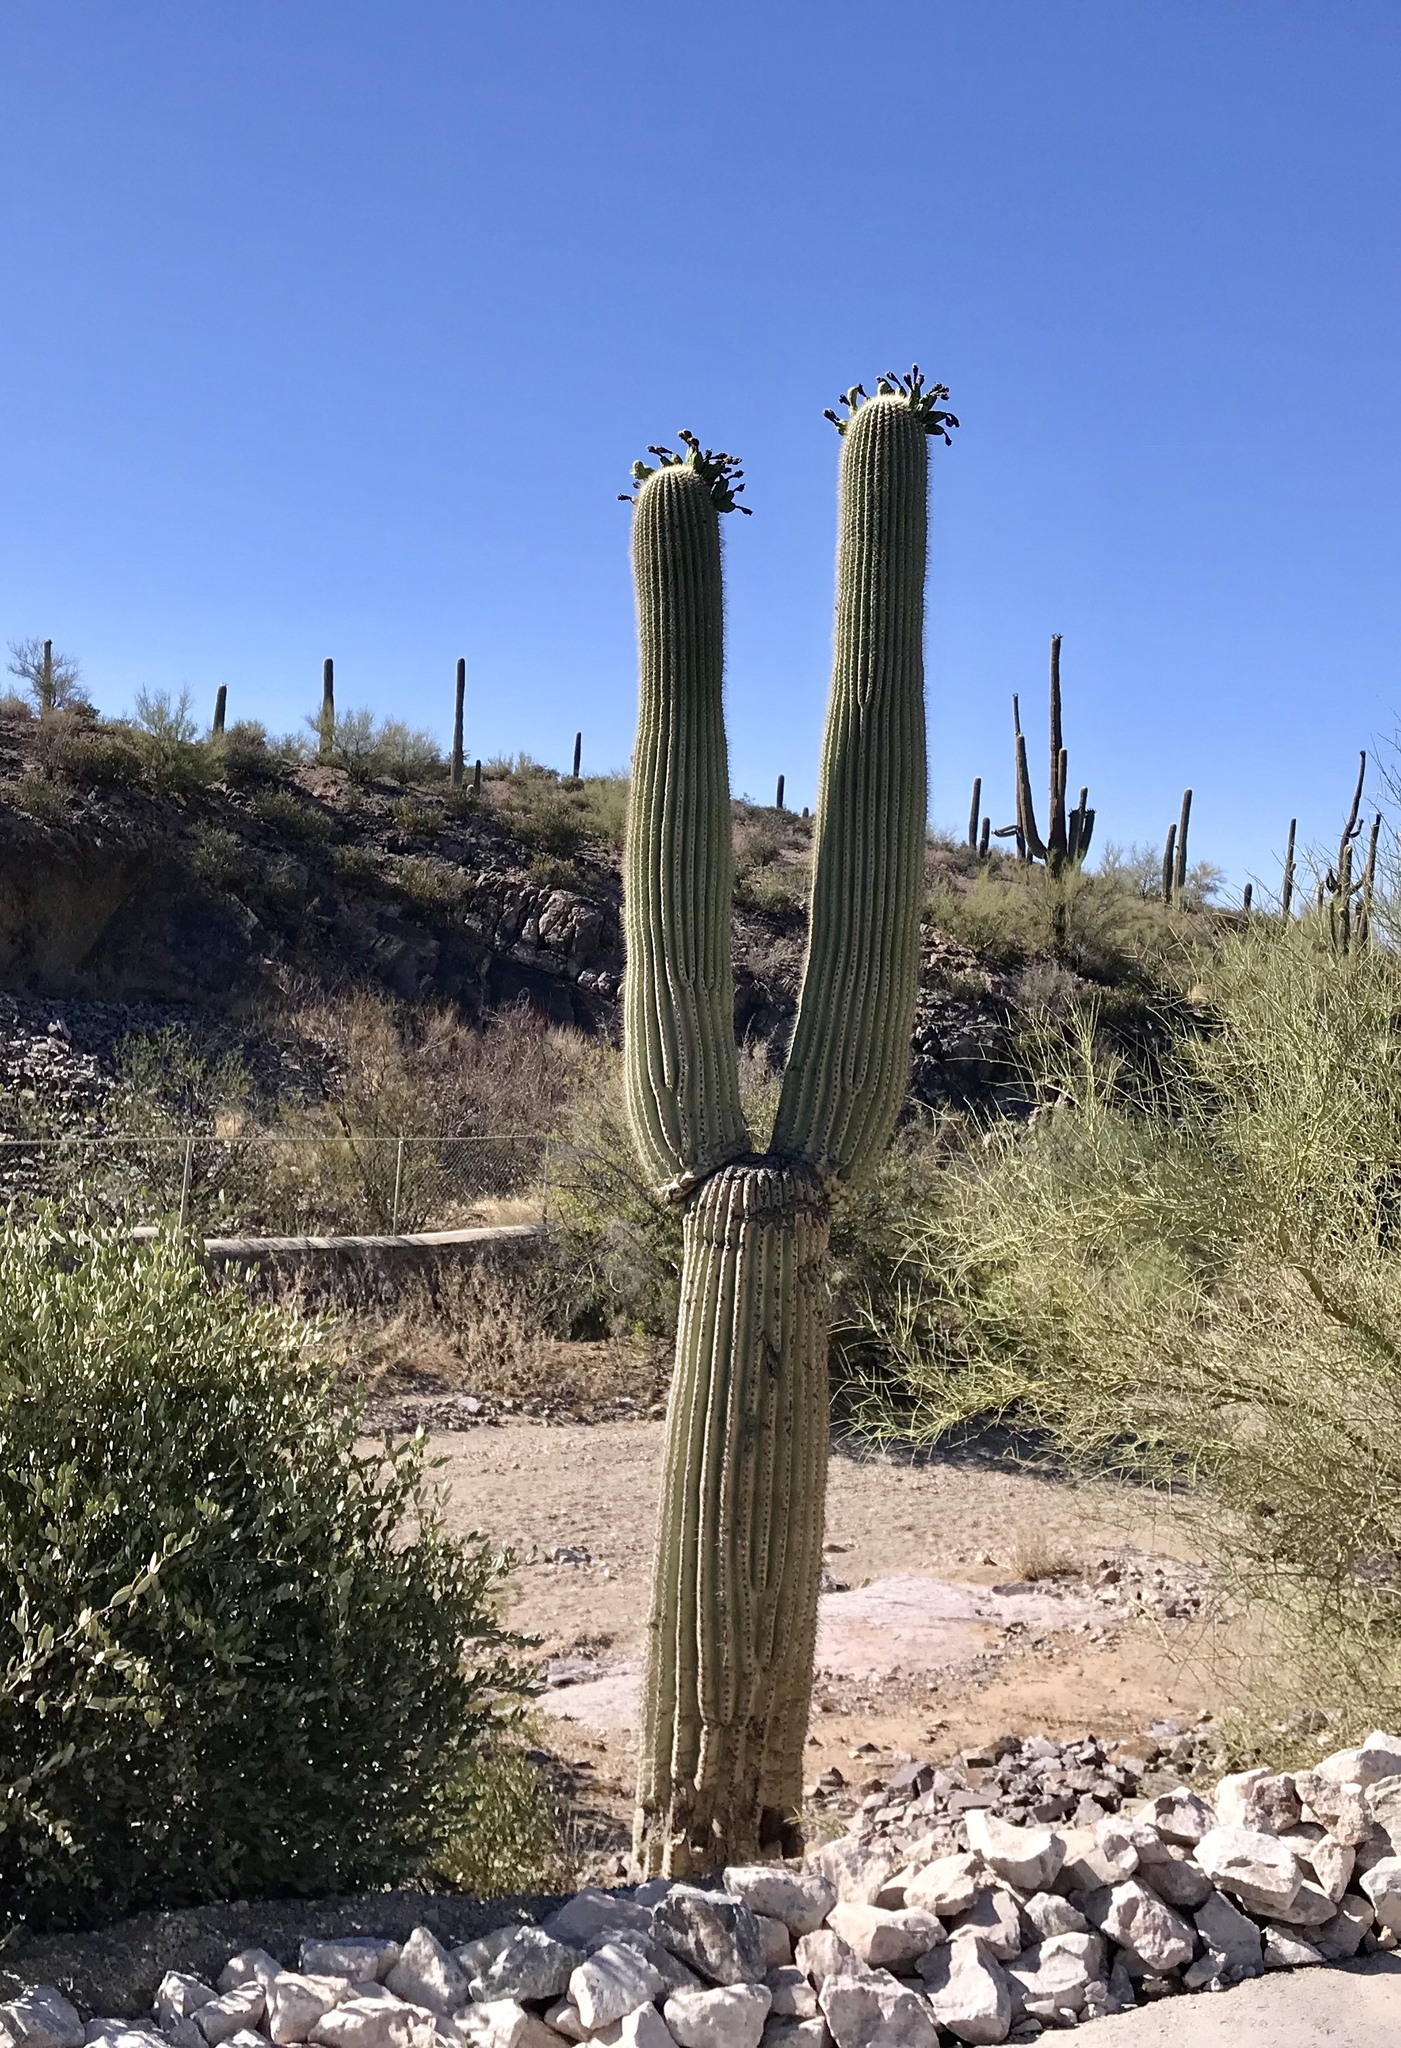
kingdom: Plantae
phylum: Tracheophyta
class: Magnoliopsida
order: Caryophyllales
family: Cactaceae
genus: Carnegiea
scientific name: Carnegiea gigantea
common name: Saguaro
